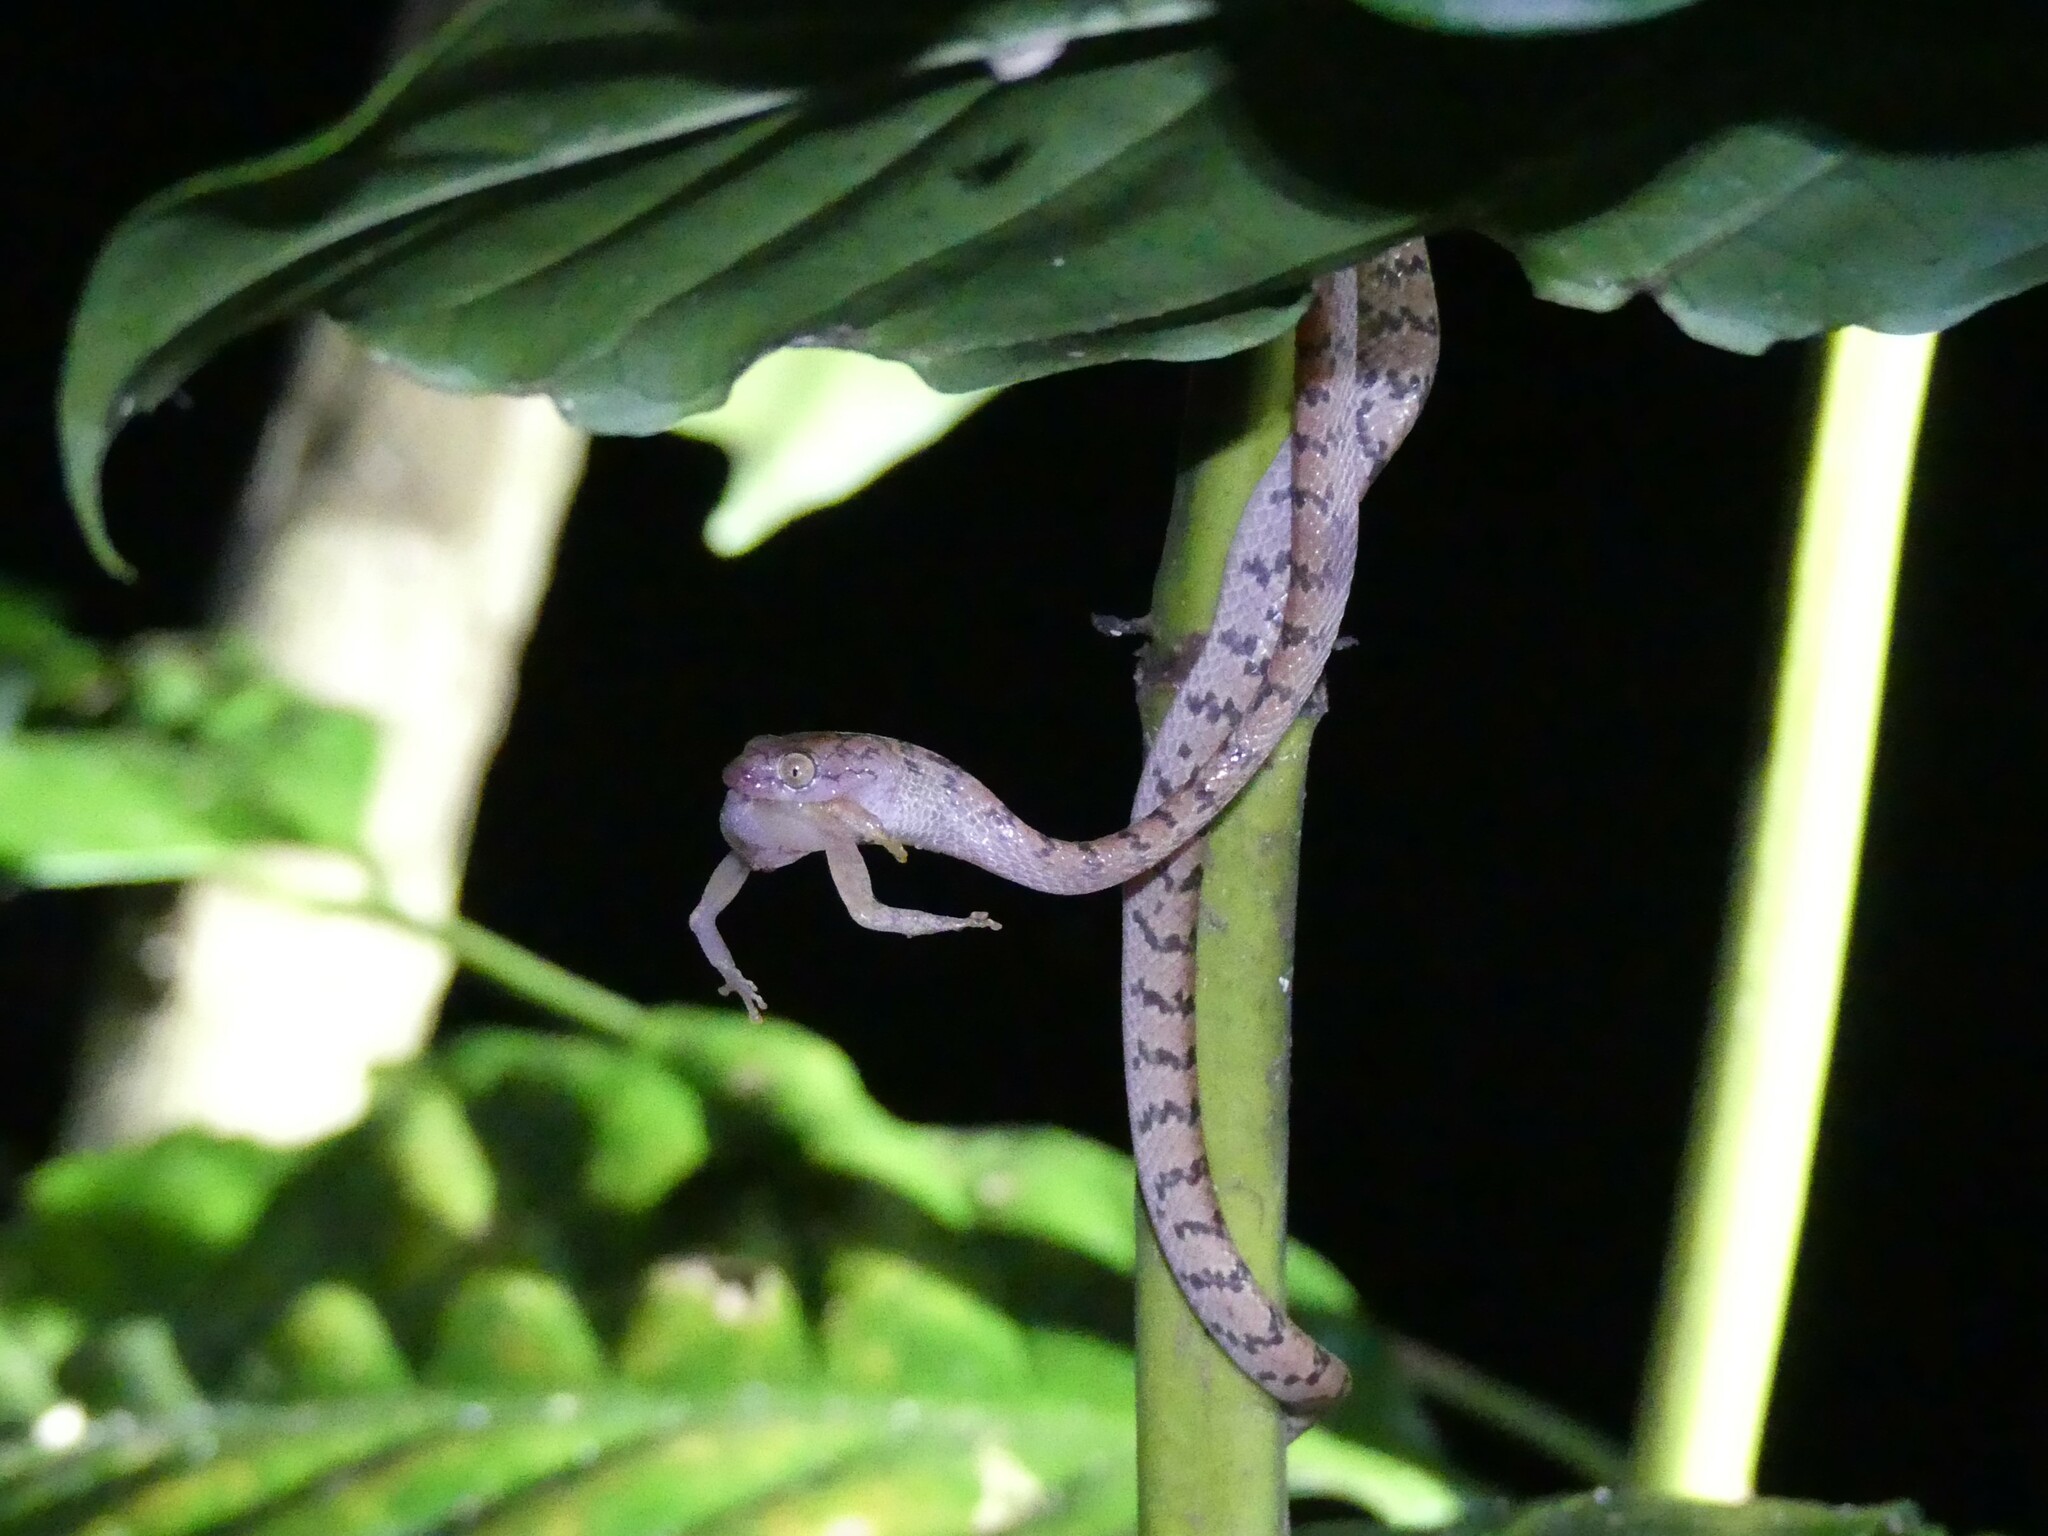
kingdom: Animalia
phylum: Chordata
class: Squamata
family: Pseudoxyrhophiidae
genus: Lycodryas
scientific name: Lycodryas granuliceps
